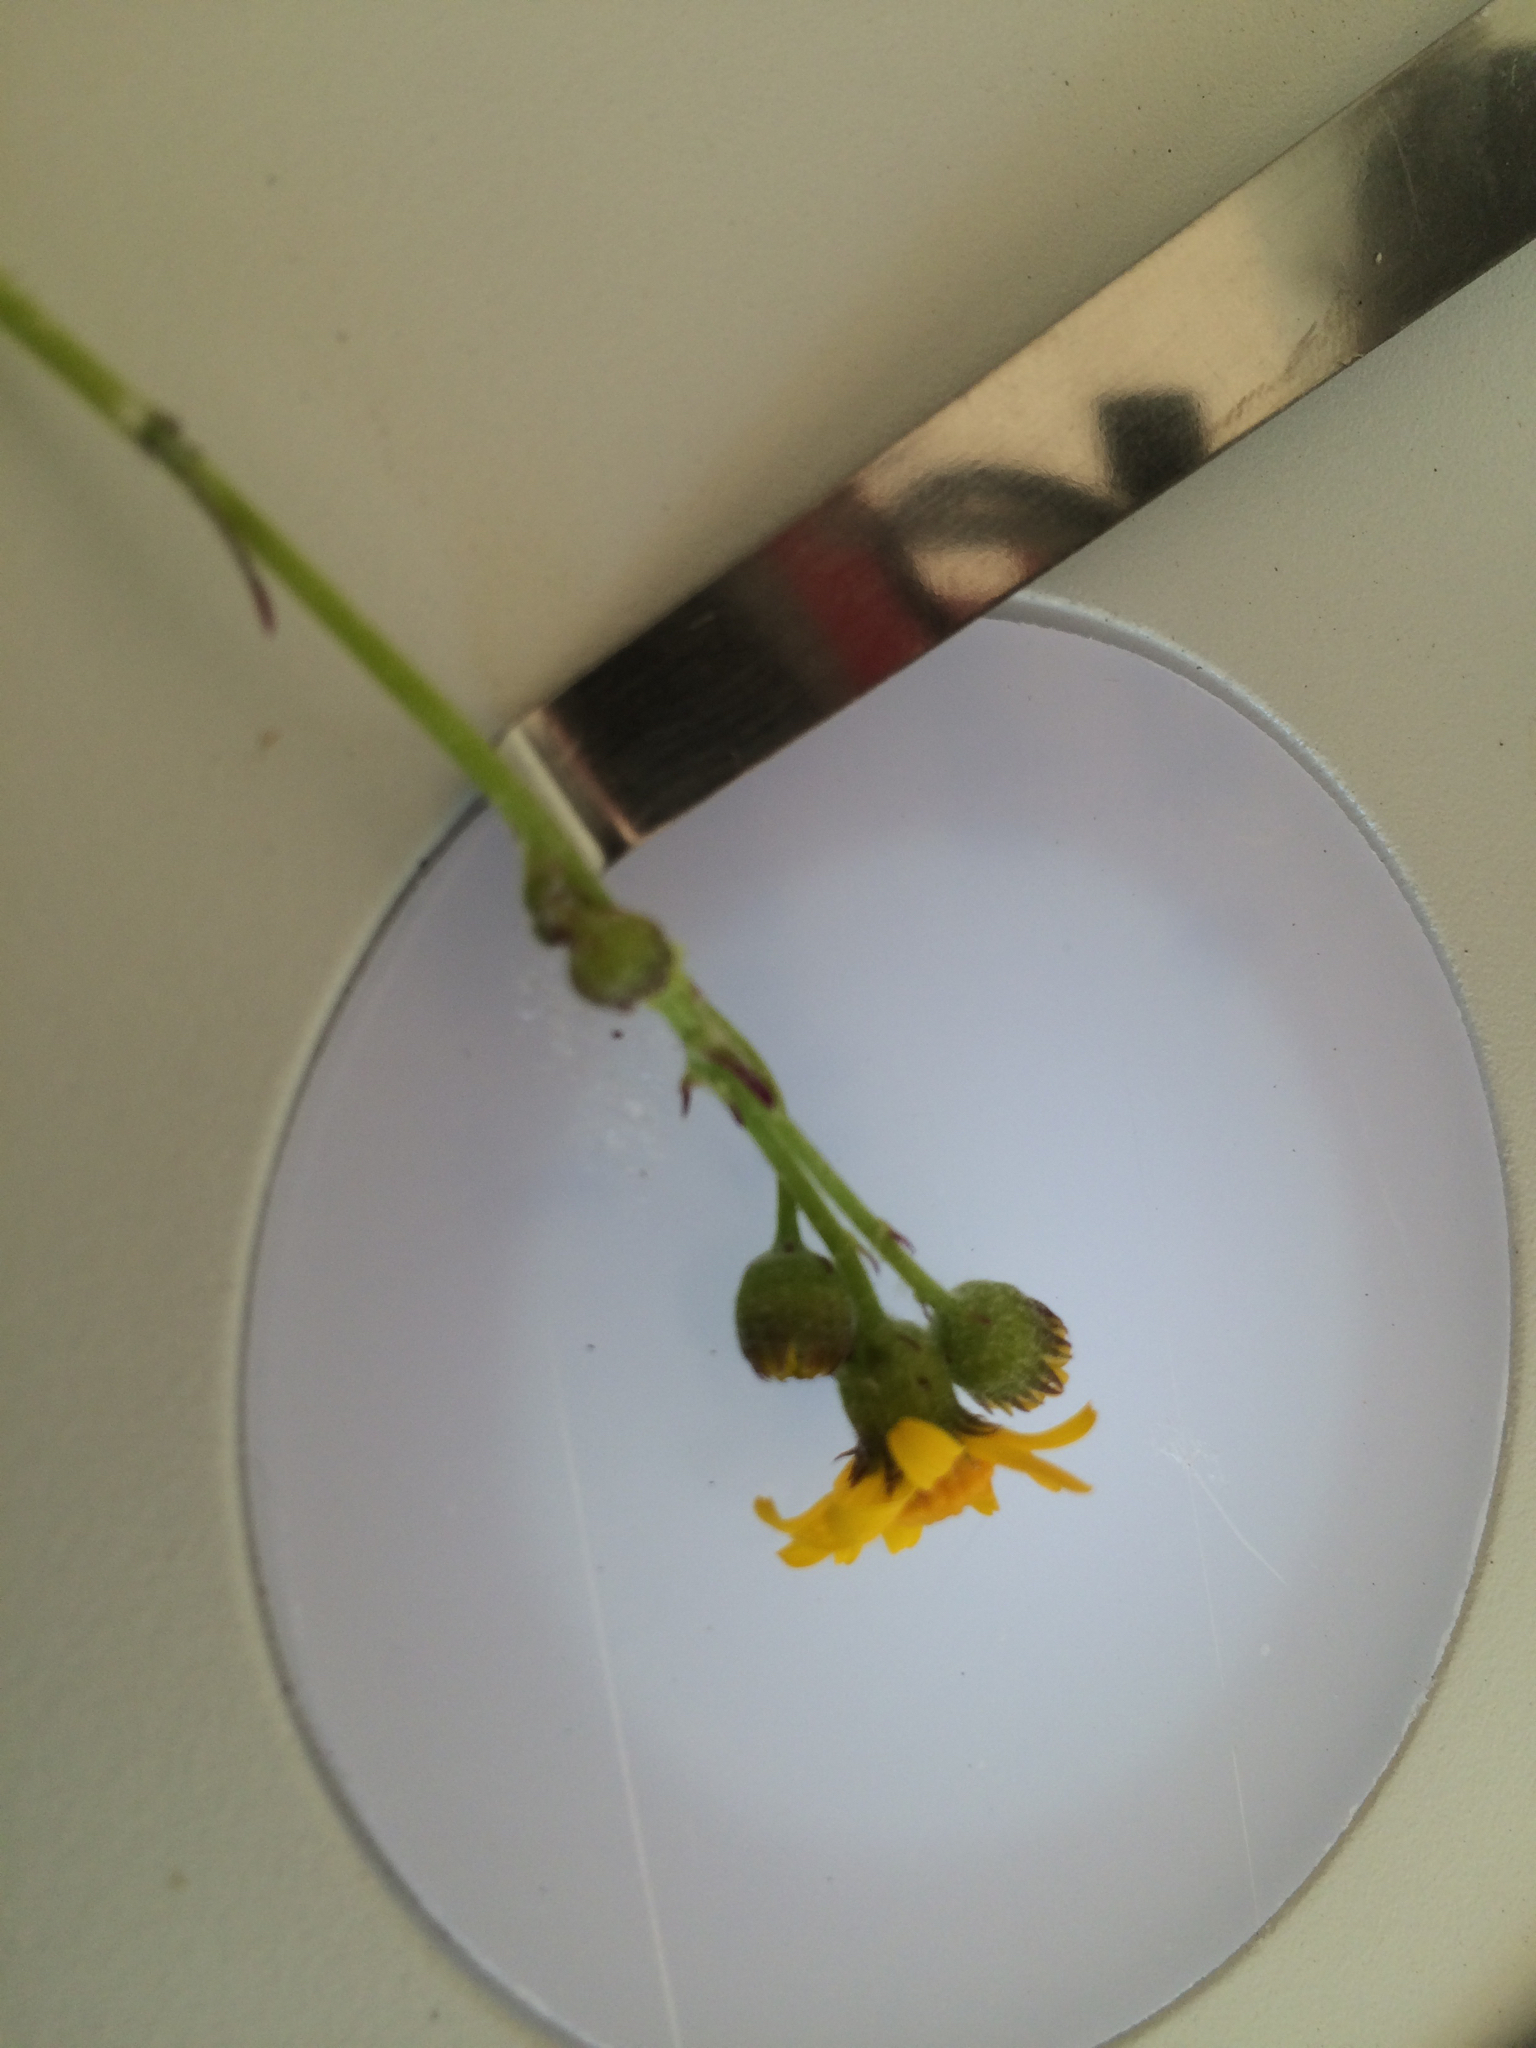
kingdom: Plantae
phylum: Tracheophyta
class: Magnoliopsida
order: Asterales
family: Asteraceae
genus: Packera
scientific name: Packera paupercula
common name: Balsam groundsel
